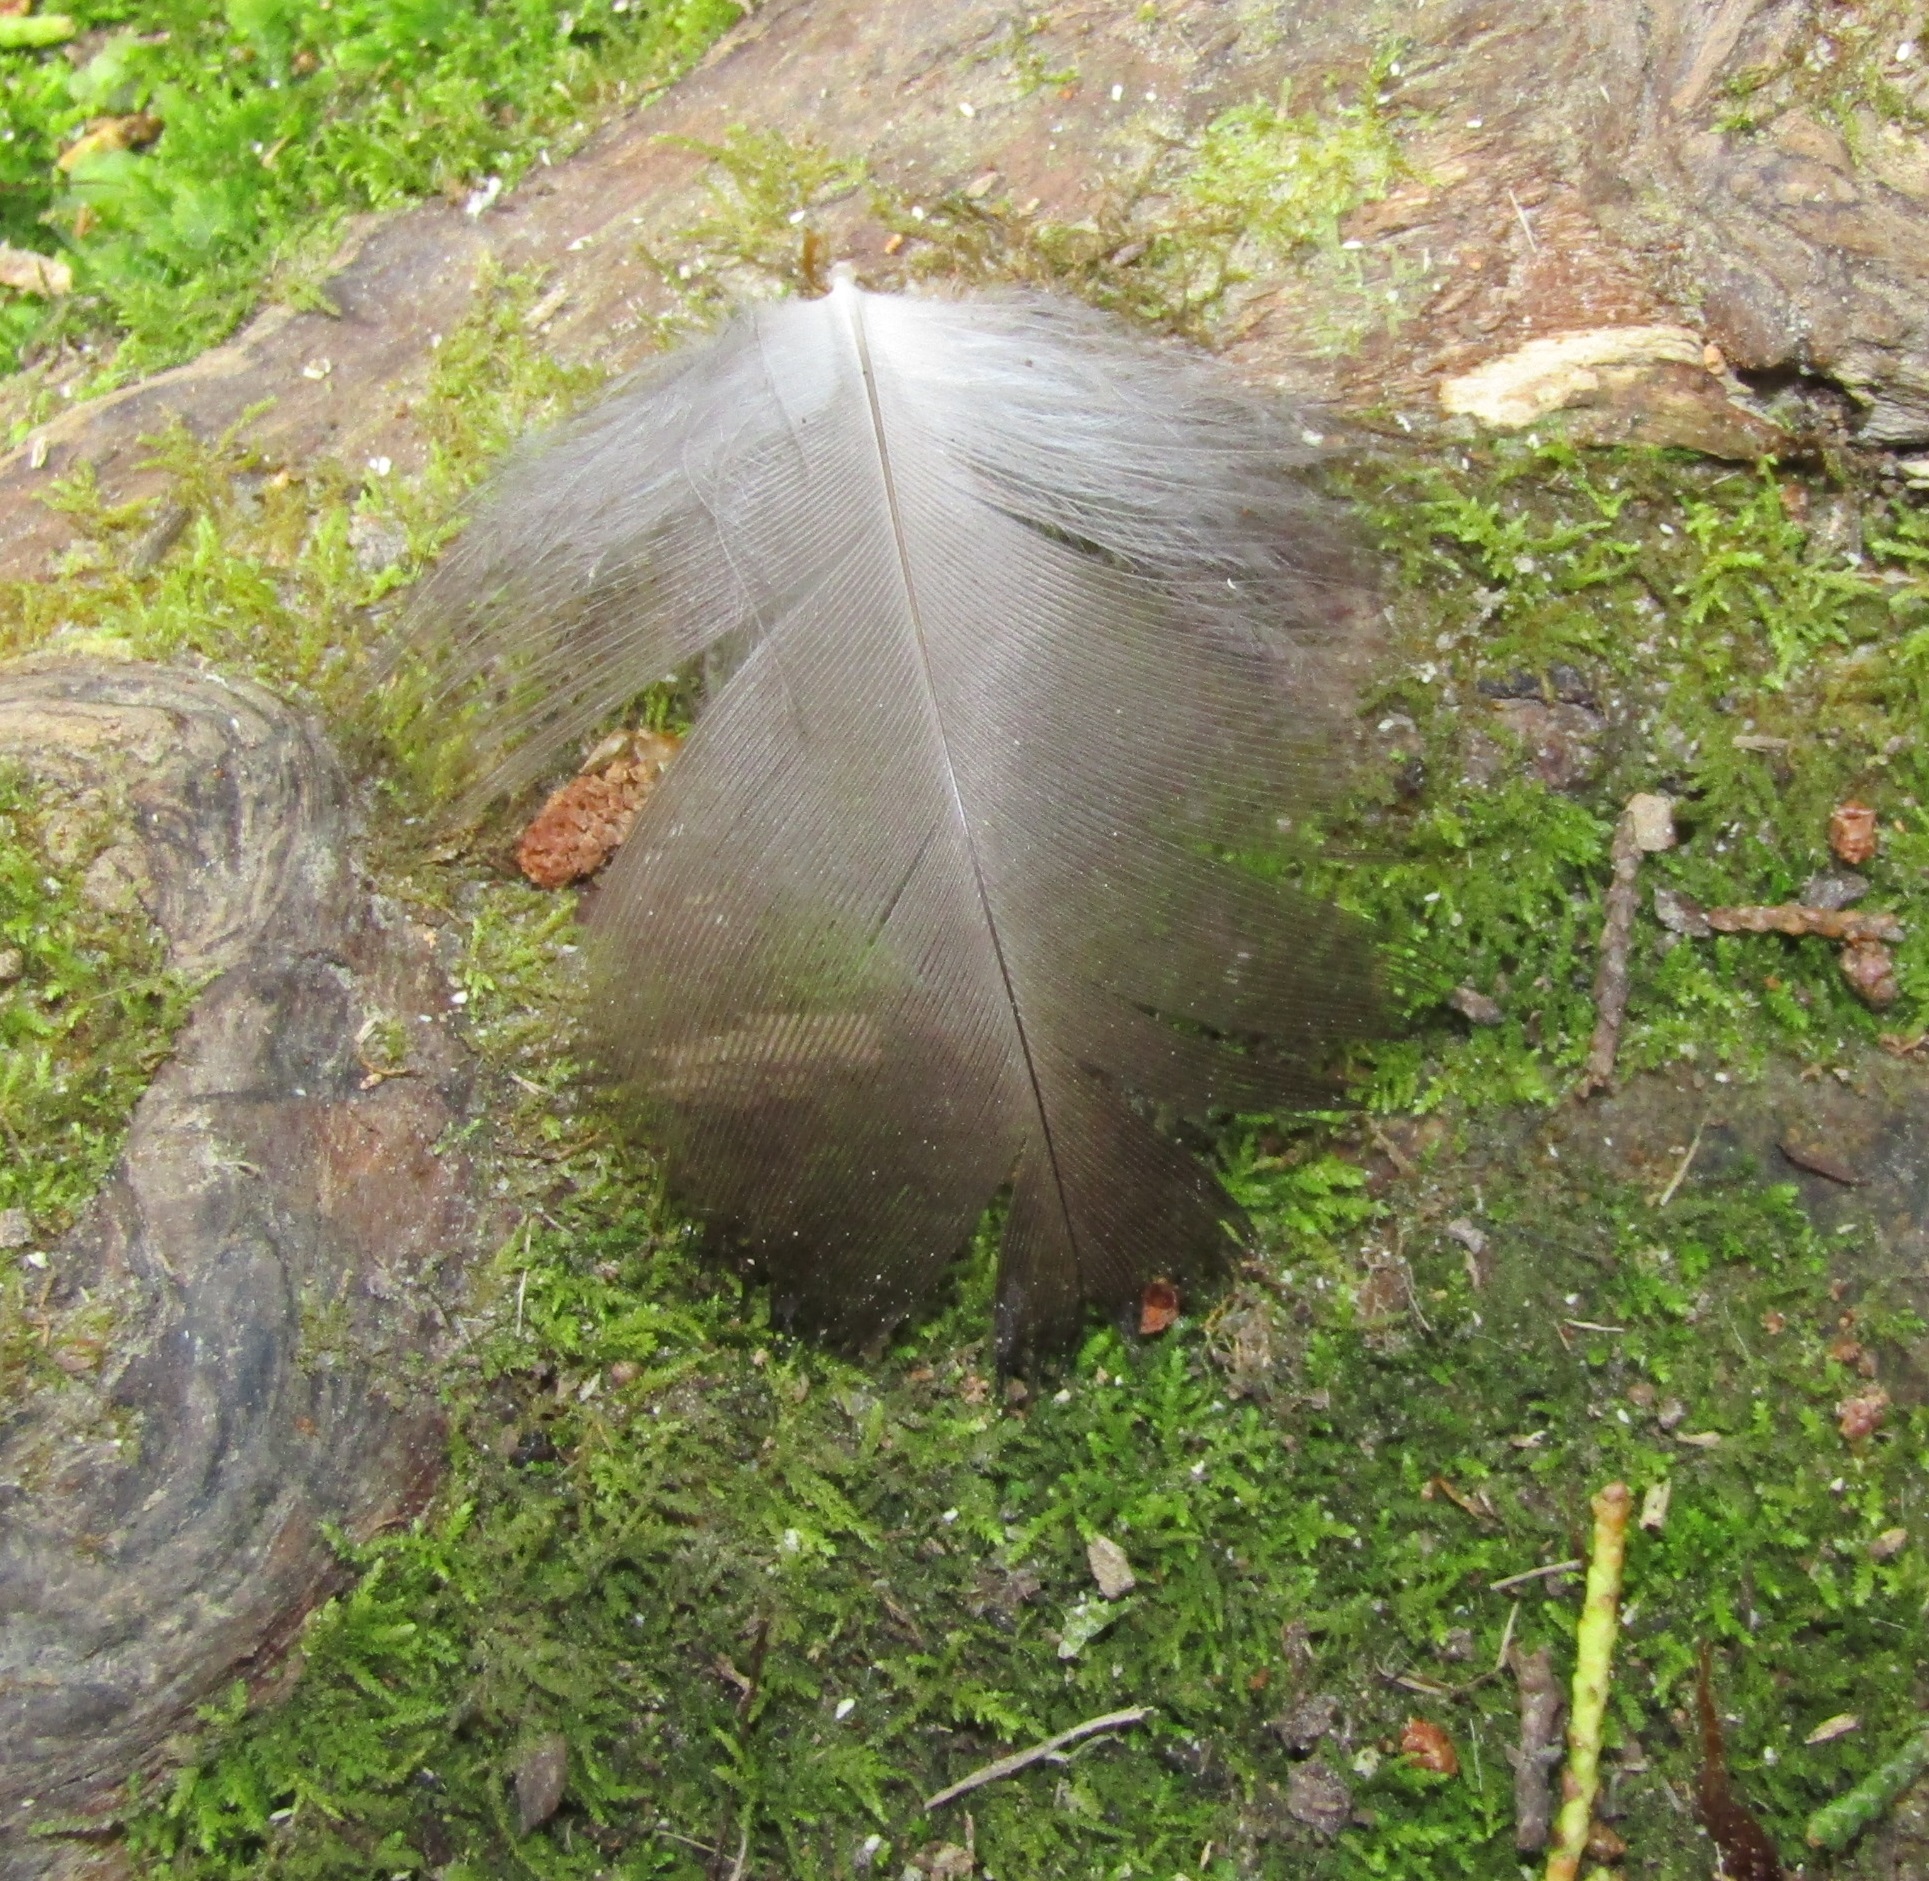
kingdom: Animalia
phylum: Chordata
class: Aves
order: Psittaciformes
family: Psittacidae
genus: Nestor
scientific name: Nestor meridionalis
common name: New zealand kaka
